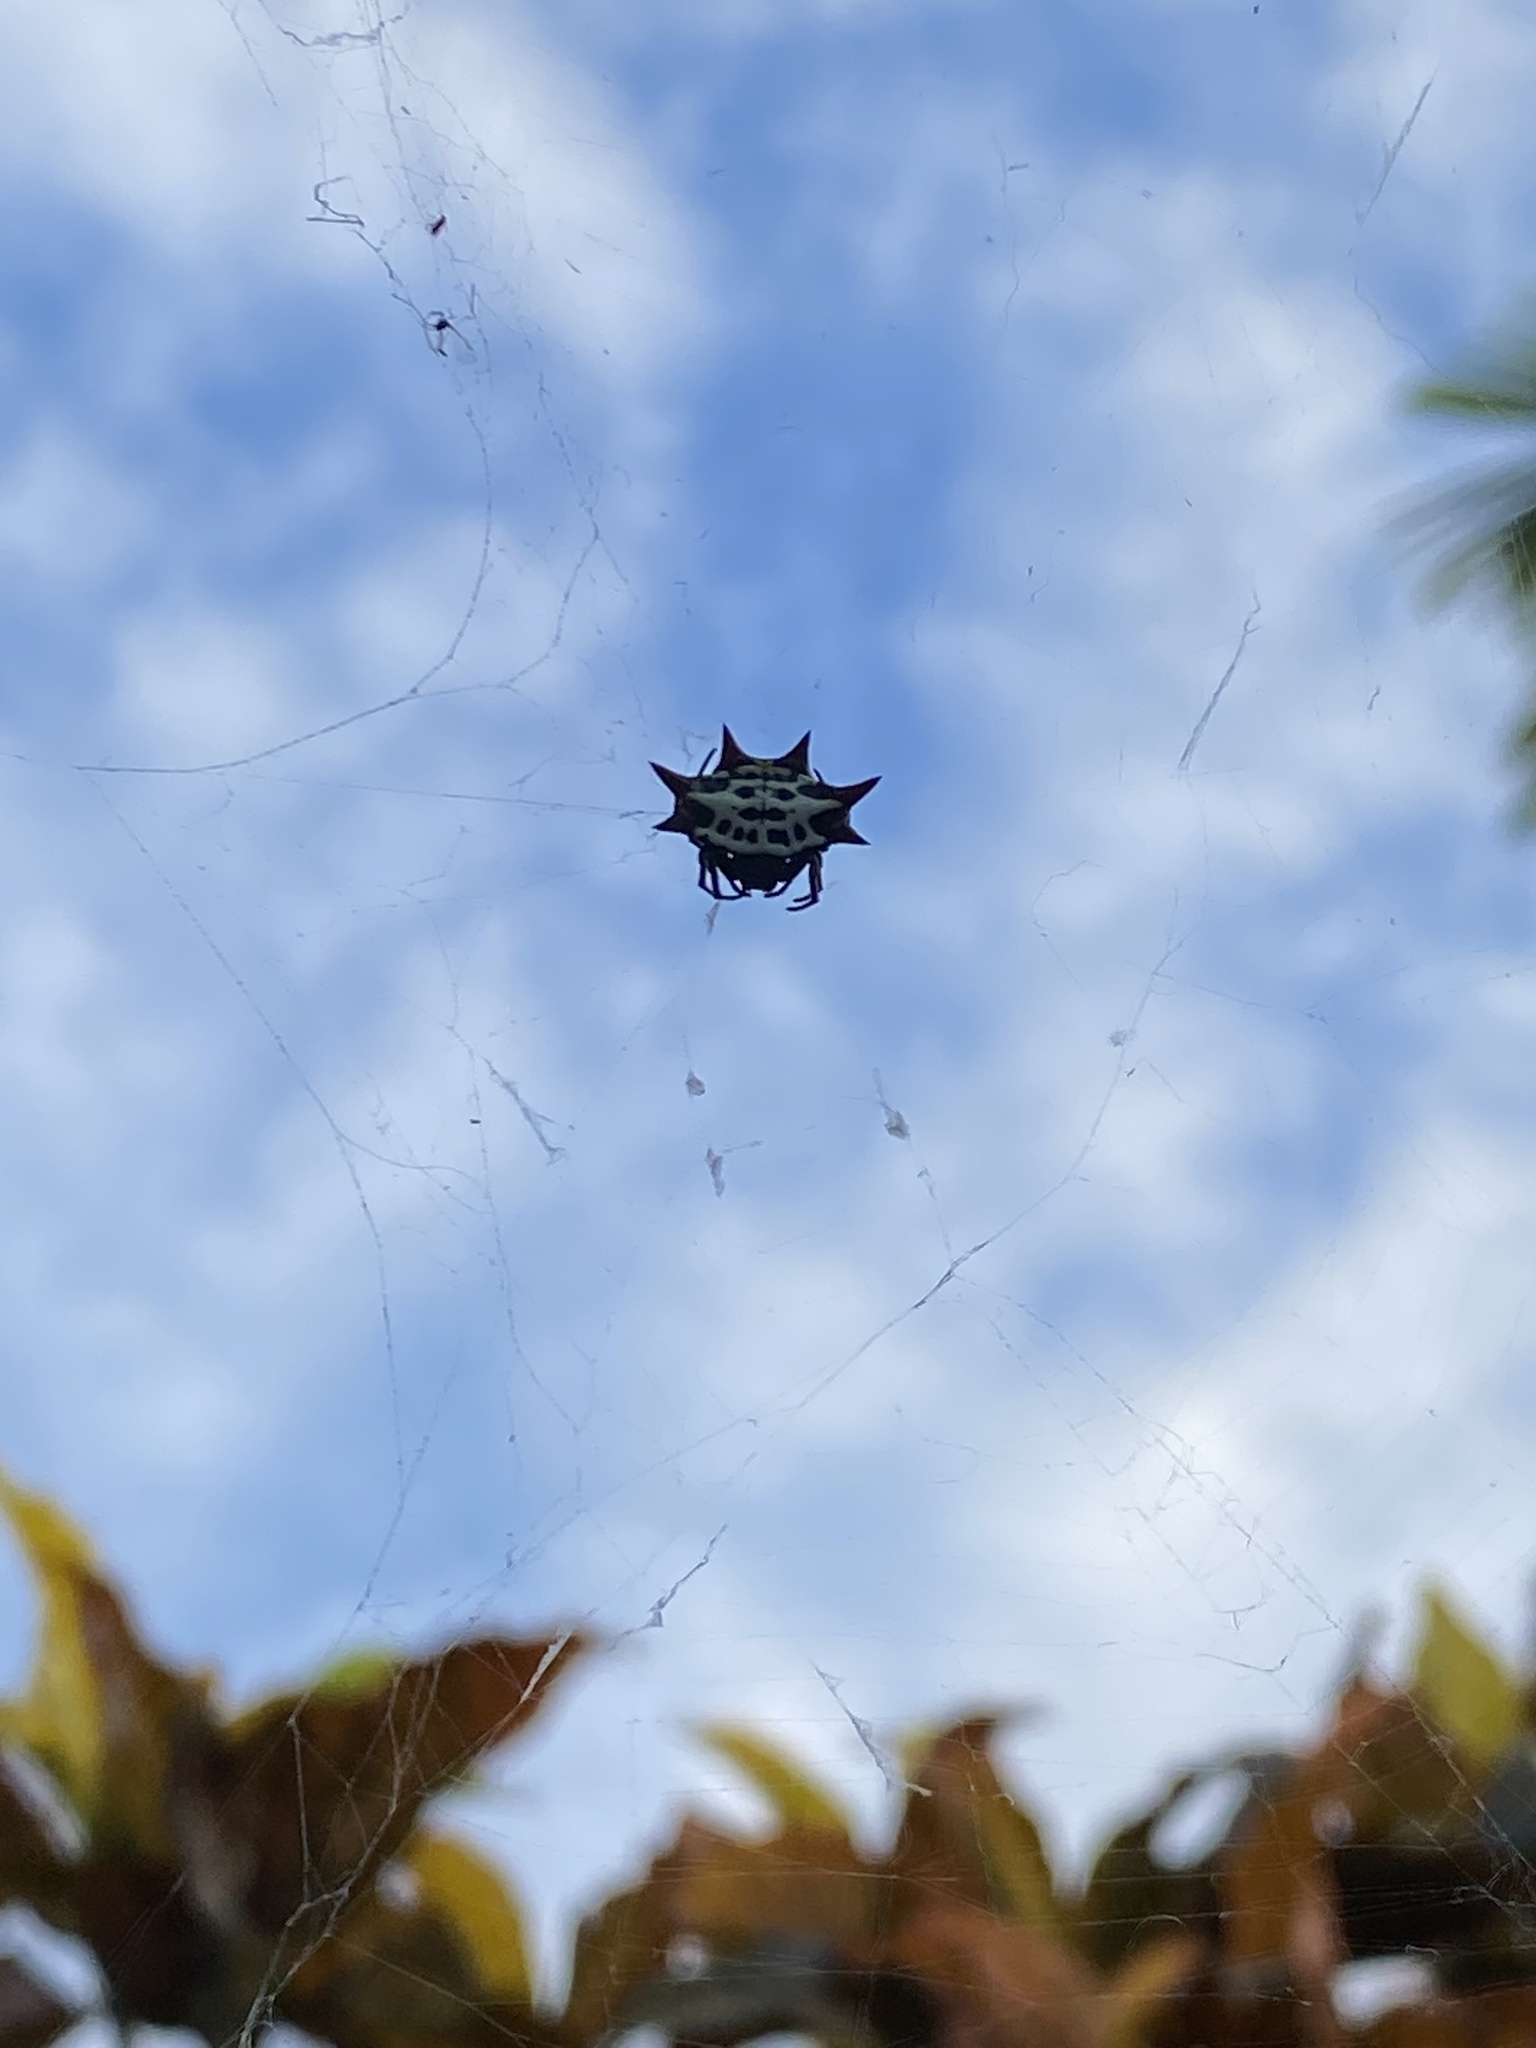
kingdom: Animalia
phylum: Arthropoda
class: Arachnida
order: Araneae
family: Araneidae
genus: Gasteracantha
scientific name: Gasteracantha cancriformis
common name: Orb weavers
